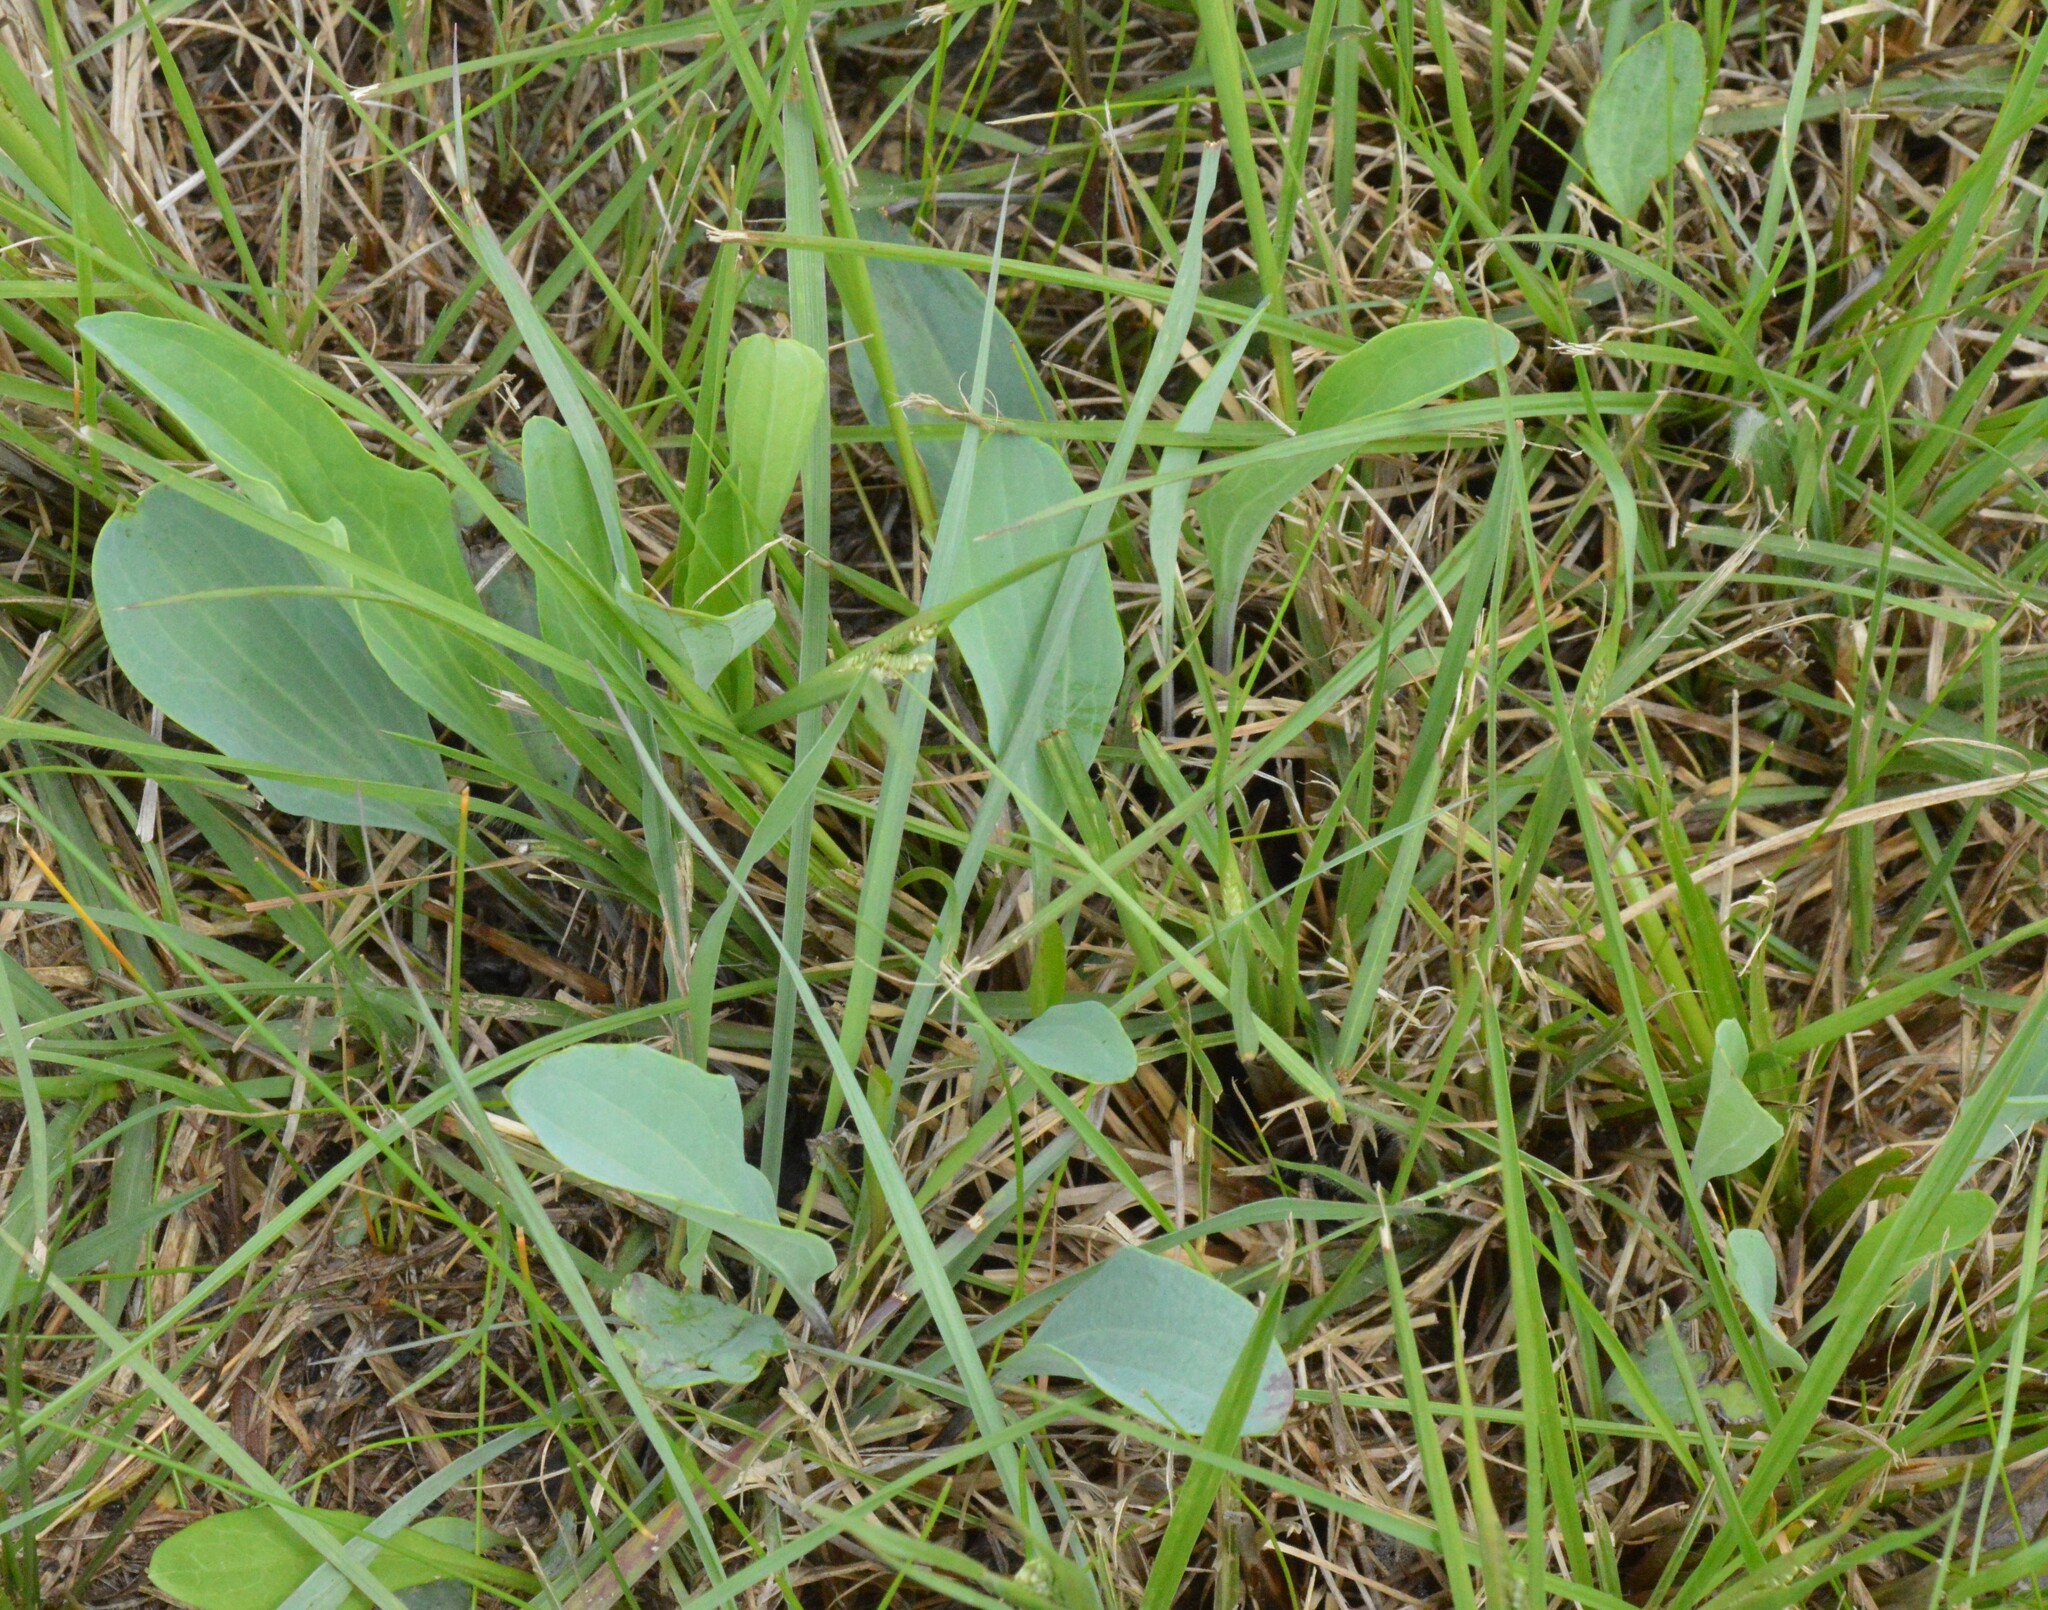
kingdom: Plantae
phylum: Tracheophyta
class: Magnoliopsida
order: Asterales
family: Asteraceae
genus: Arnoglossum
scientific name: Arnoglossum ovatum
